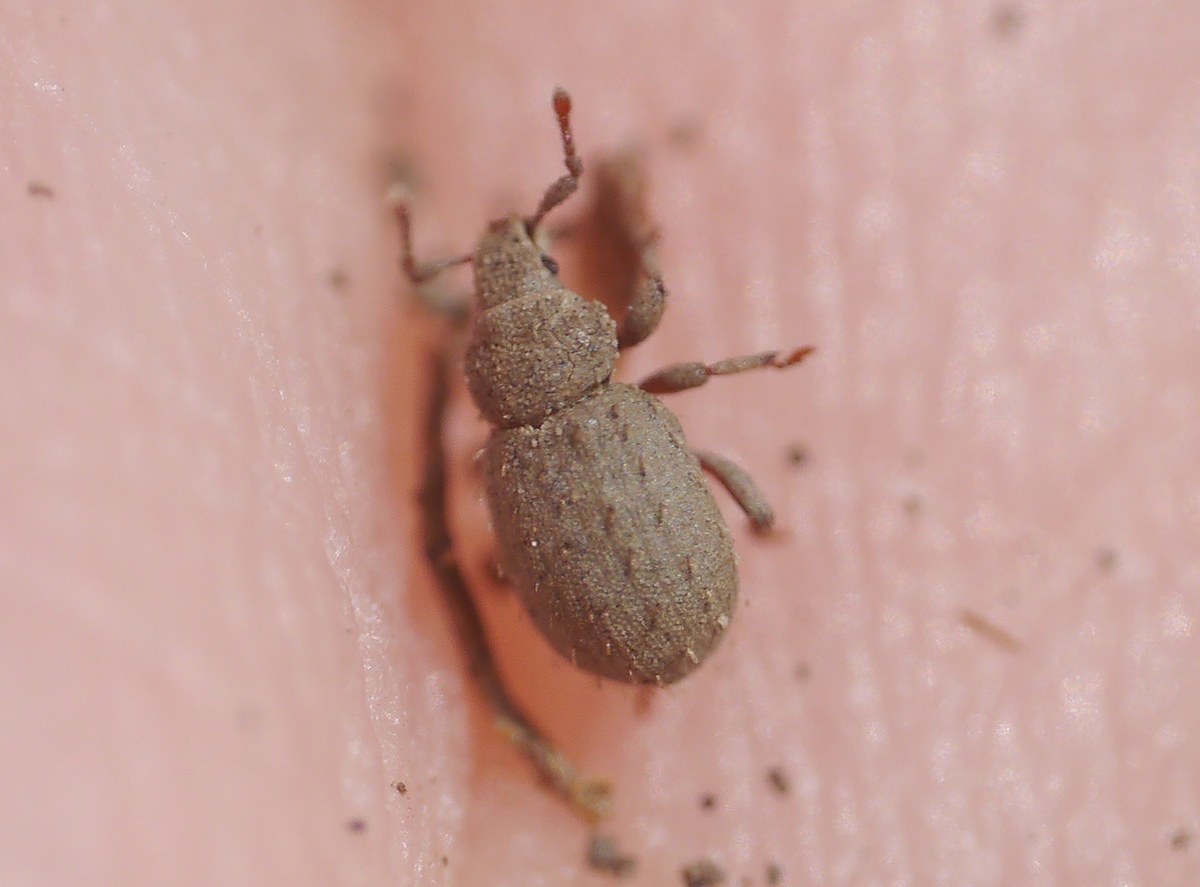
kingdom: Animalia
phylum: Arthropoda
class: Insecta
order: Coleoptera
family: Curculionidae
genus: Trachyphloeus
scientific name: Trachyphloeus alternans
